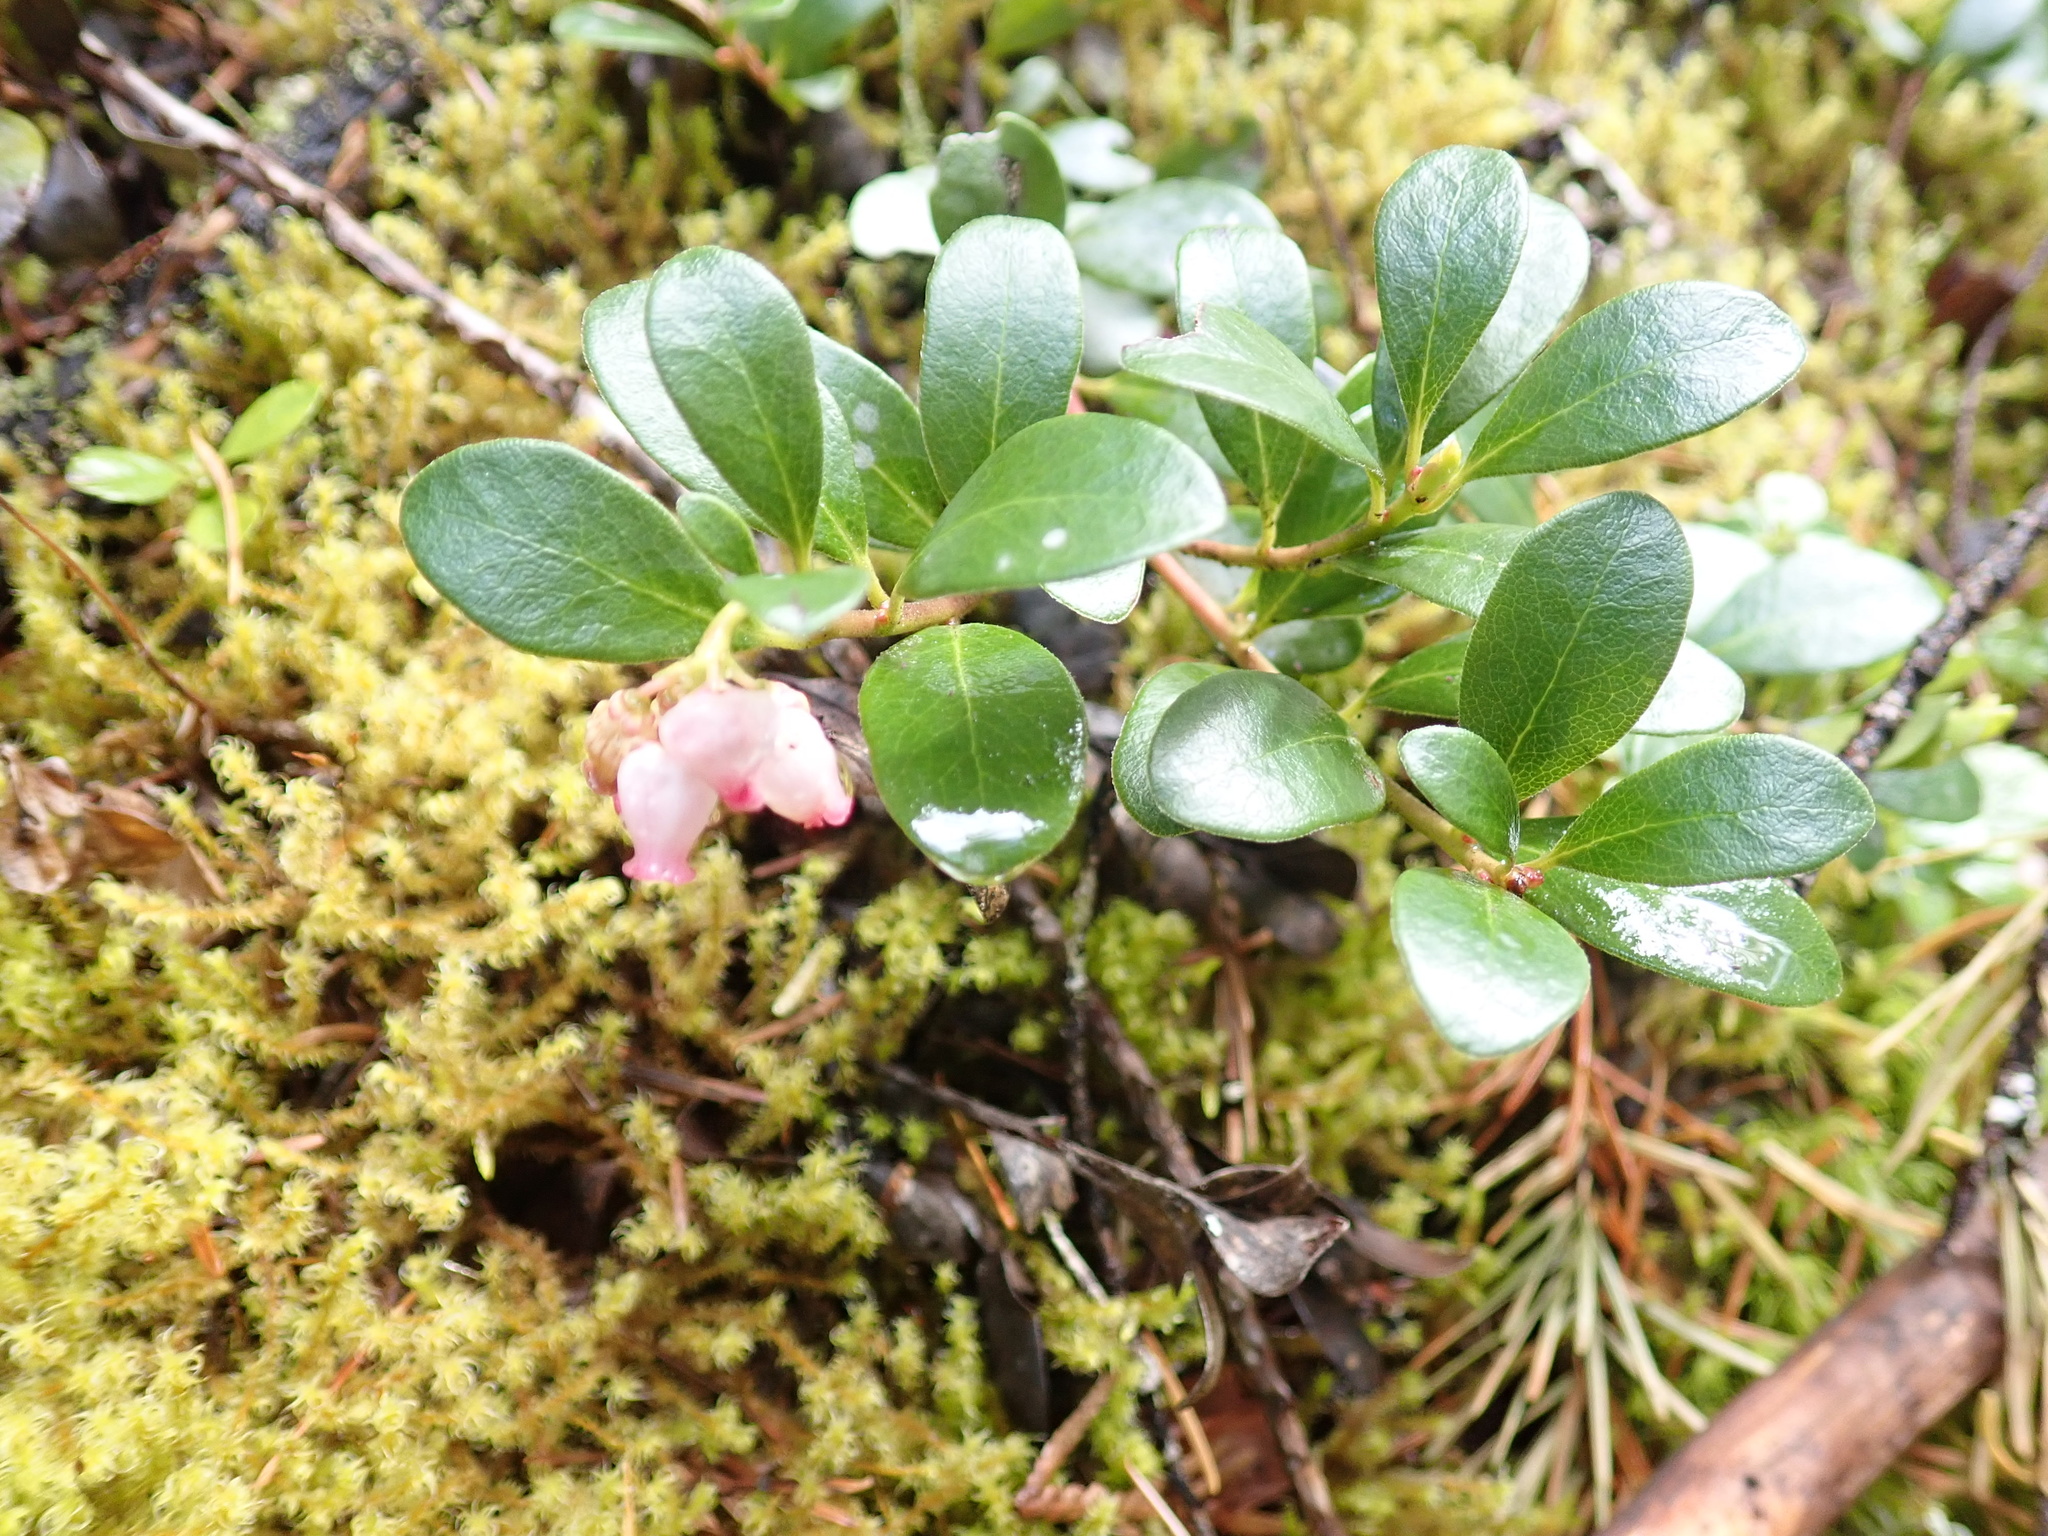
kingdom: Plantae
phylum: Tracheophyta
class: Magnoliopsida
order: Ericales
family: Ericaceae
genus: Arctostaphylos
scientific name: Arctostaphylos uva-ursi
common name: Bearberry
